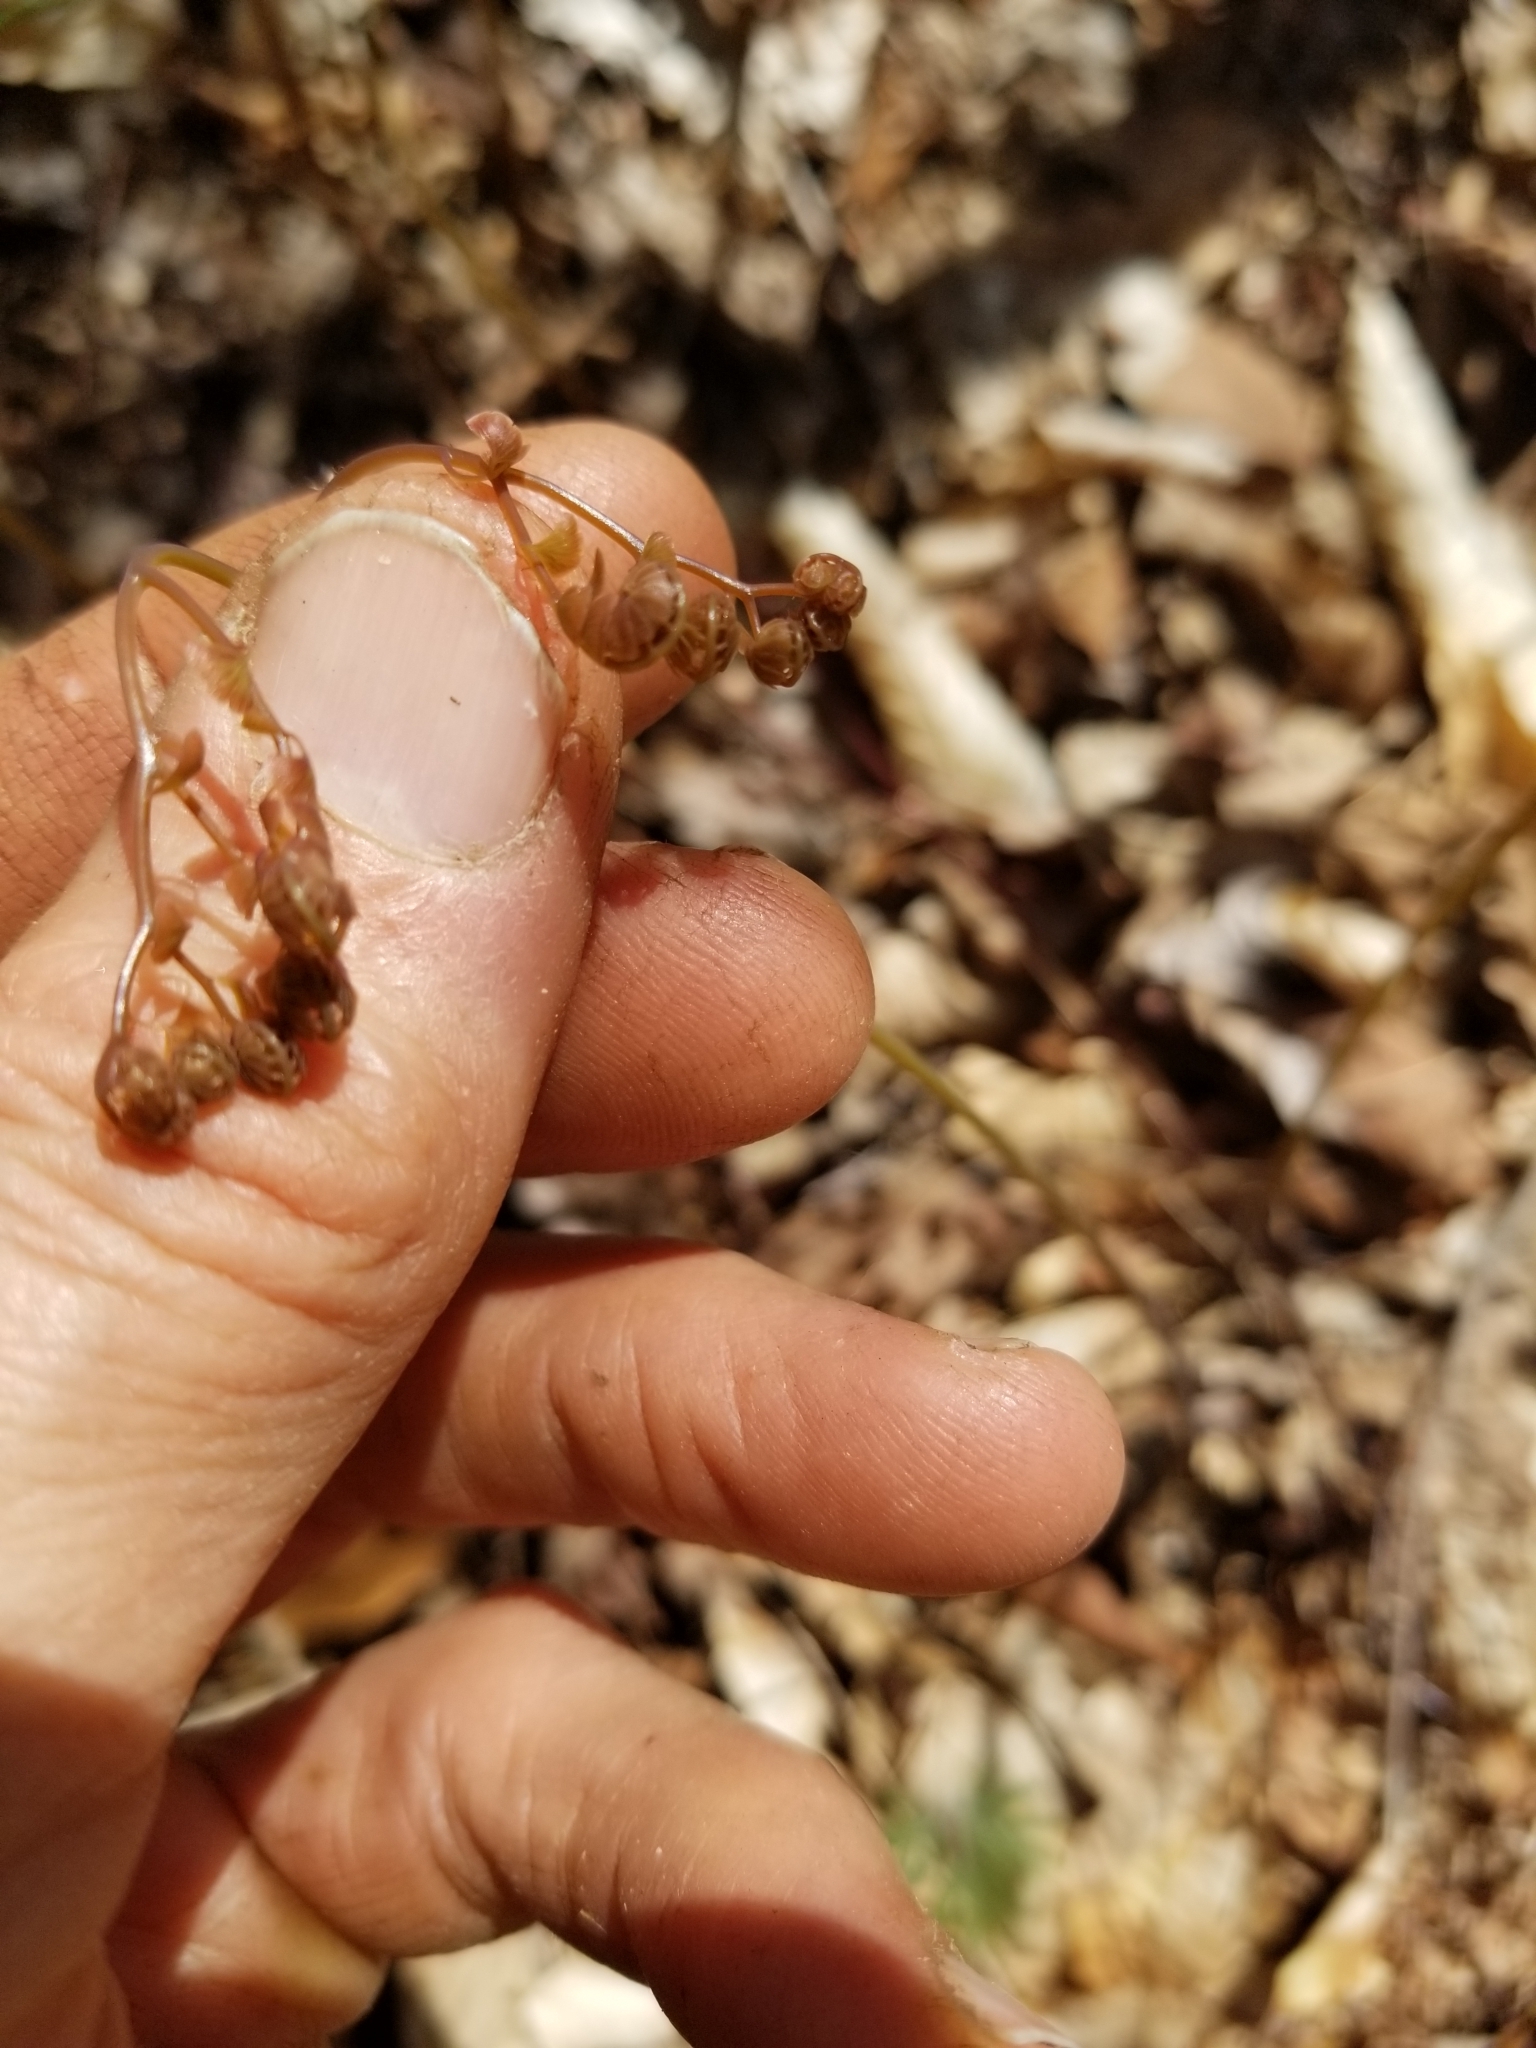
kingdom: Plantae
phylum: Tracheophyta
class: Polypodiopsida
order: Polypodiales
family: Pteridaceae
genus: Adiantum
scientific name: Adiantum pedatum
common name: Five-finger fern
